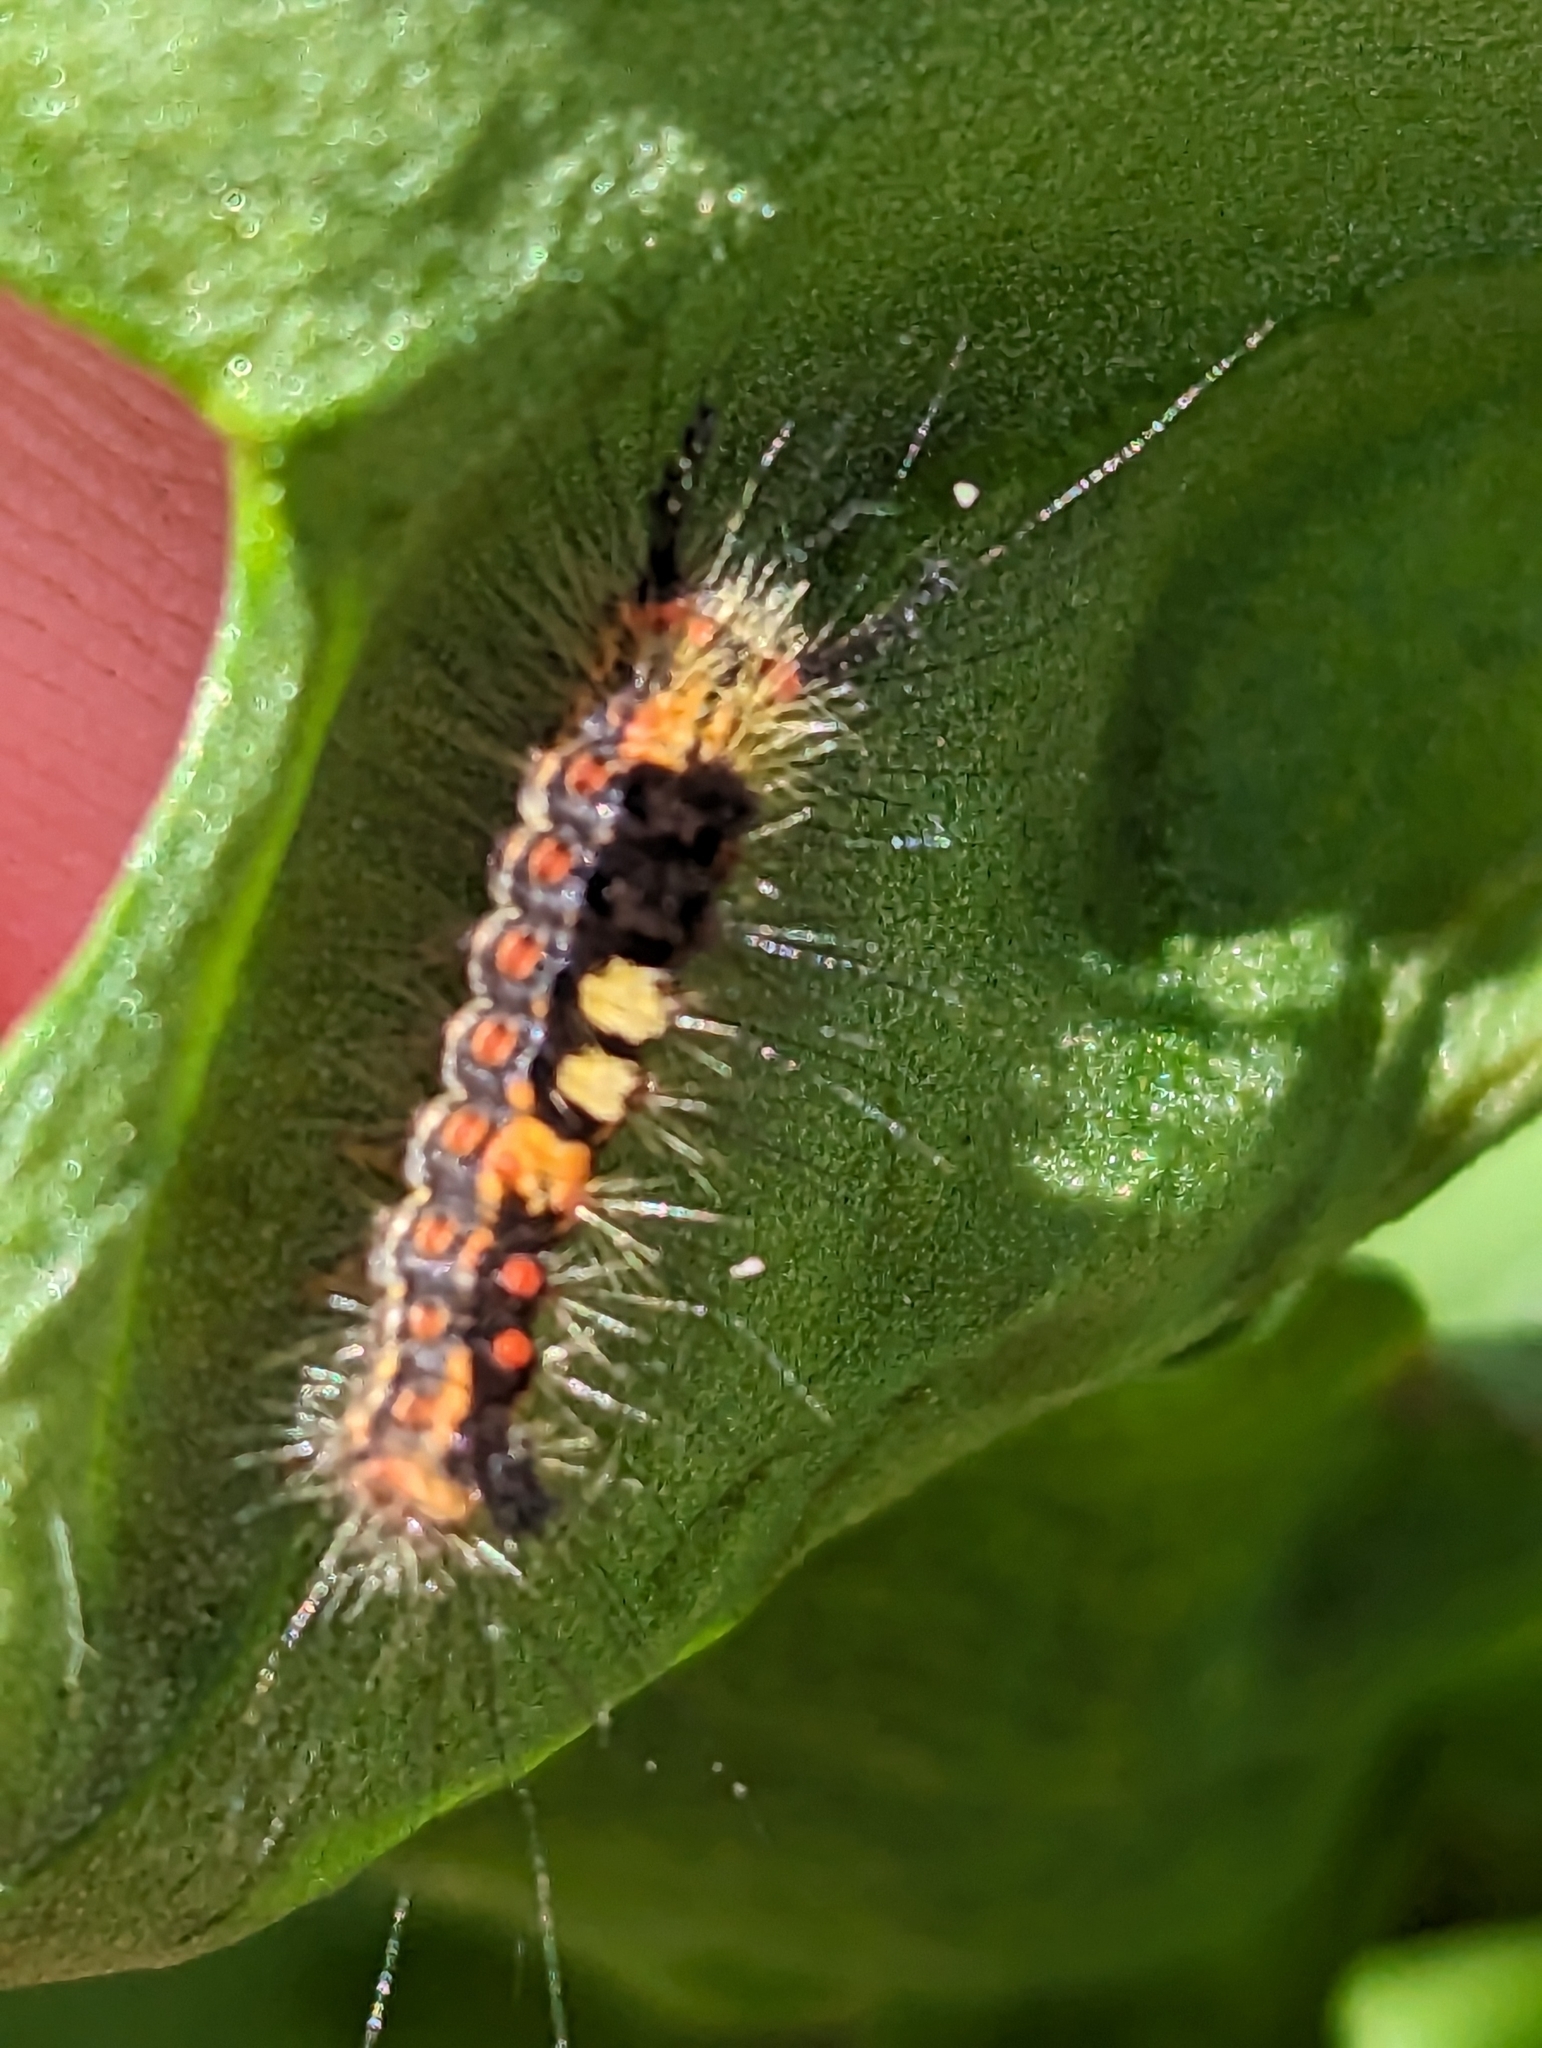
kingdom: Animalia
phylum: Arthropoda
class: Insecta
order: Lepidoptera
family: Erebidae
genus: Orgyia
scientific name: Orgyia antiqua
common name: Vapourer
